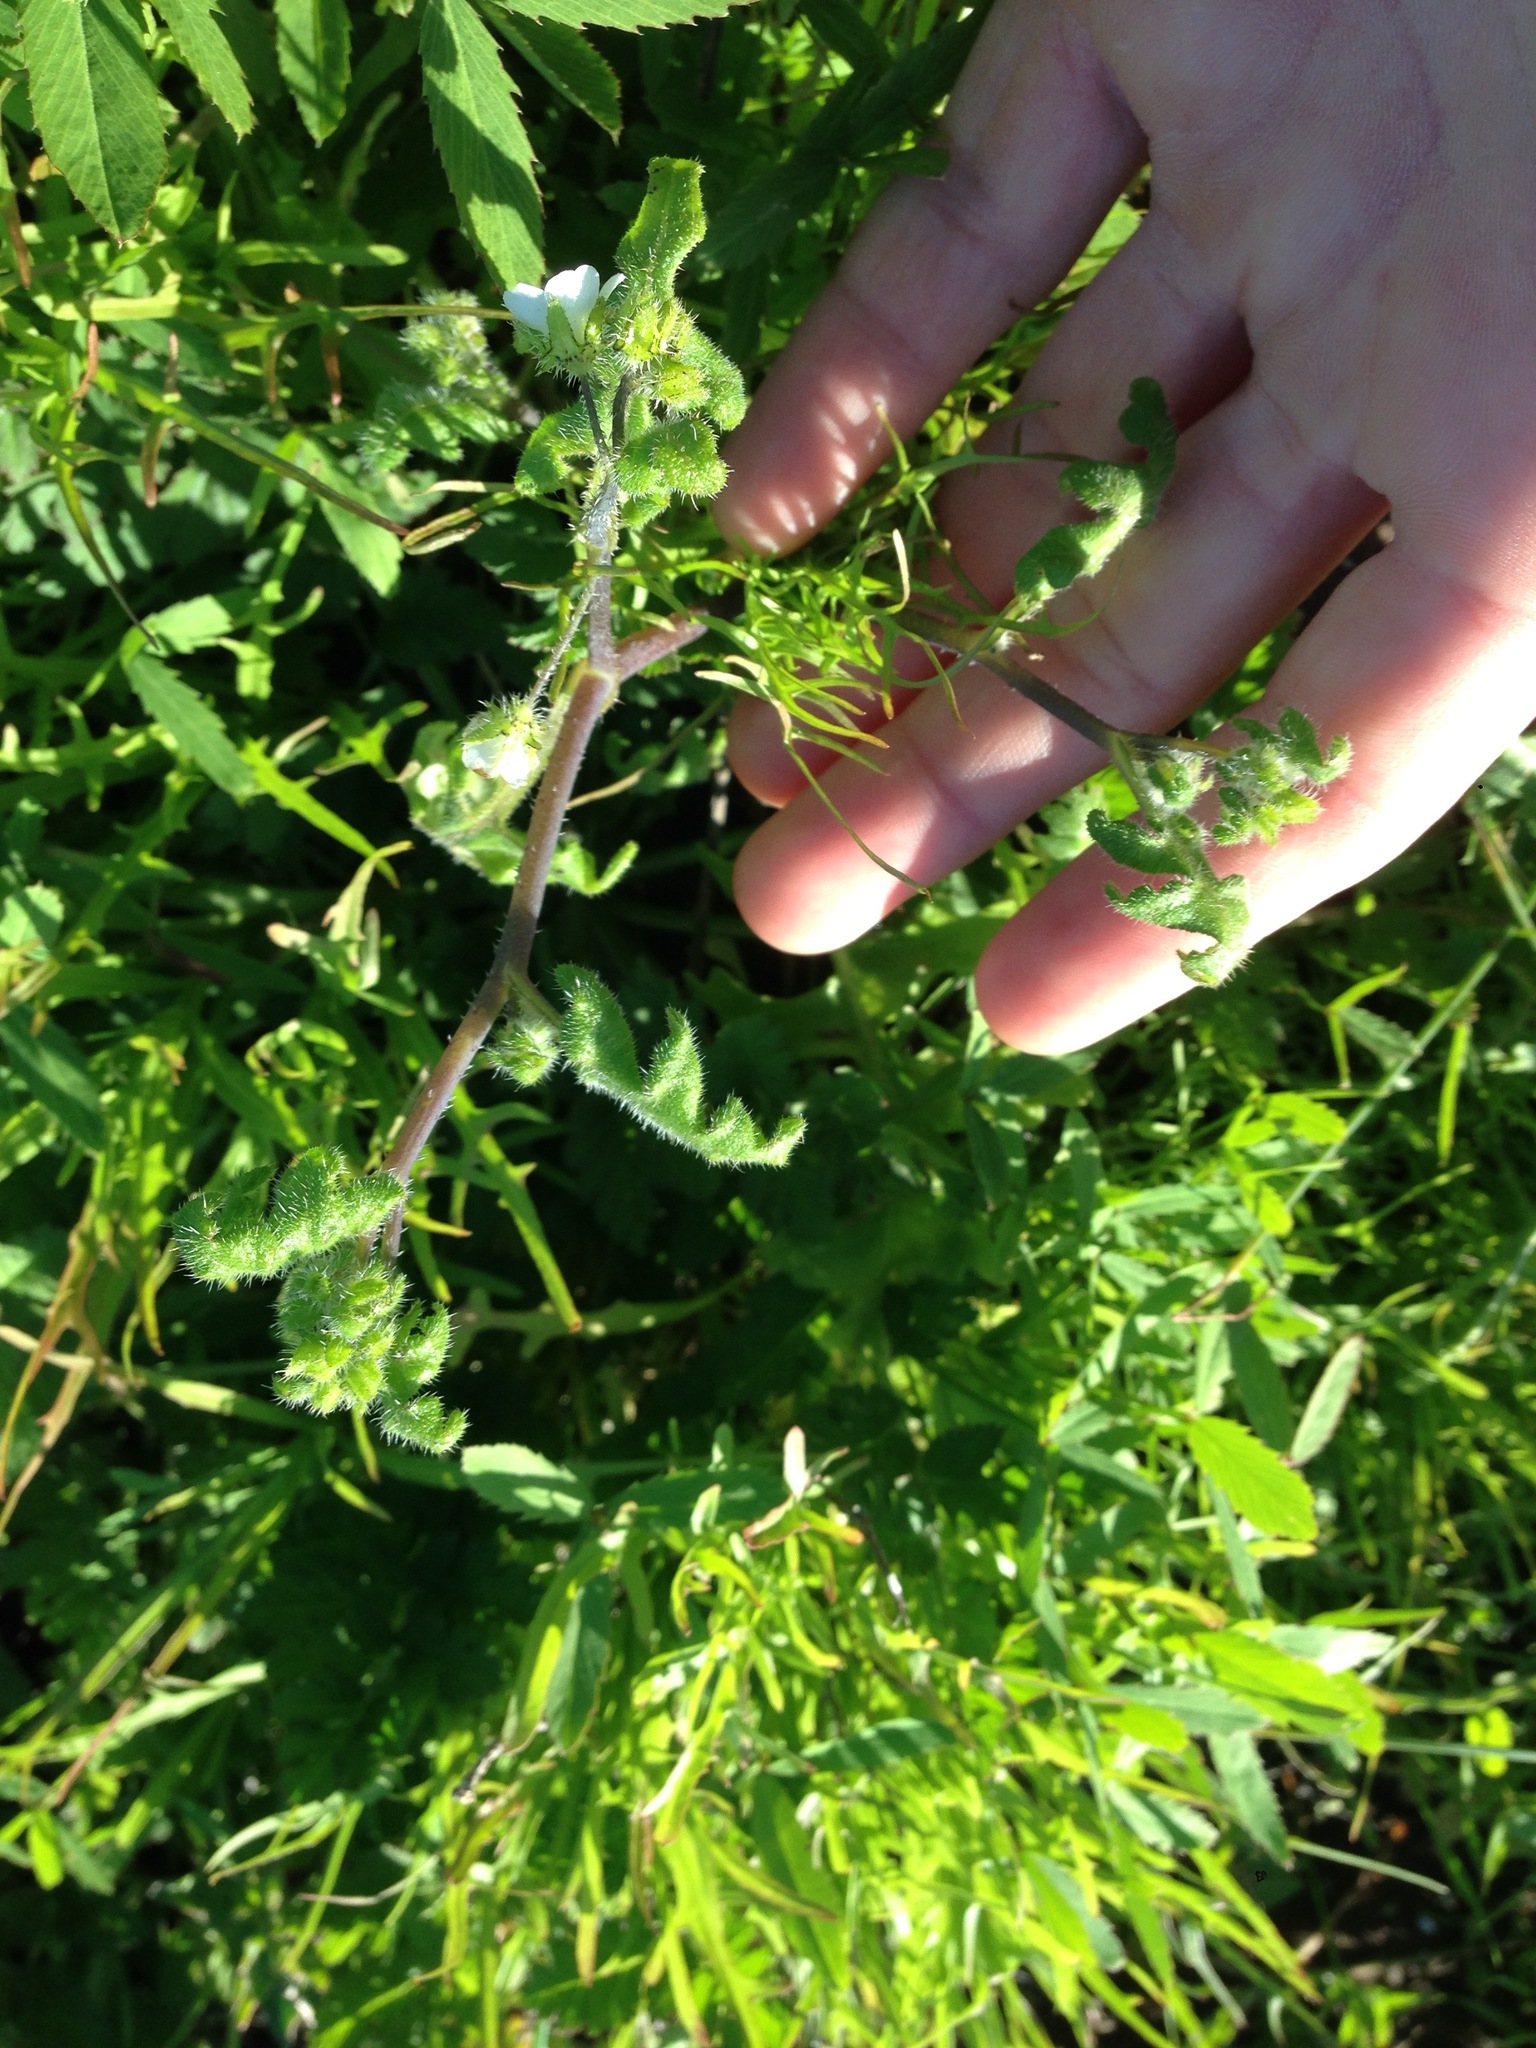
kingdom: Plantae
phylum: Tracheophyta
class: Magnoliopsida
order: Boraginales
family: Hydrophyllaceae
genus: Pholistoma
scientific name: Pholistoma racemosum
